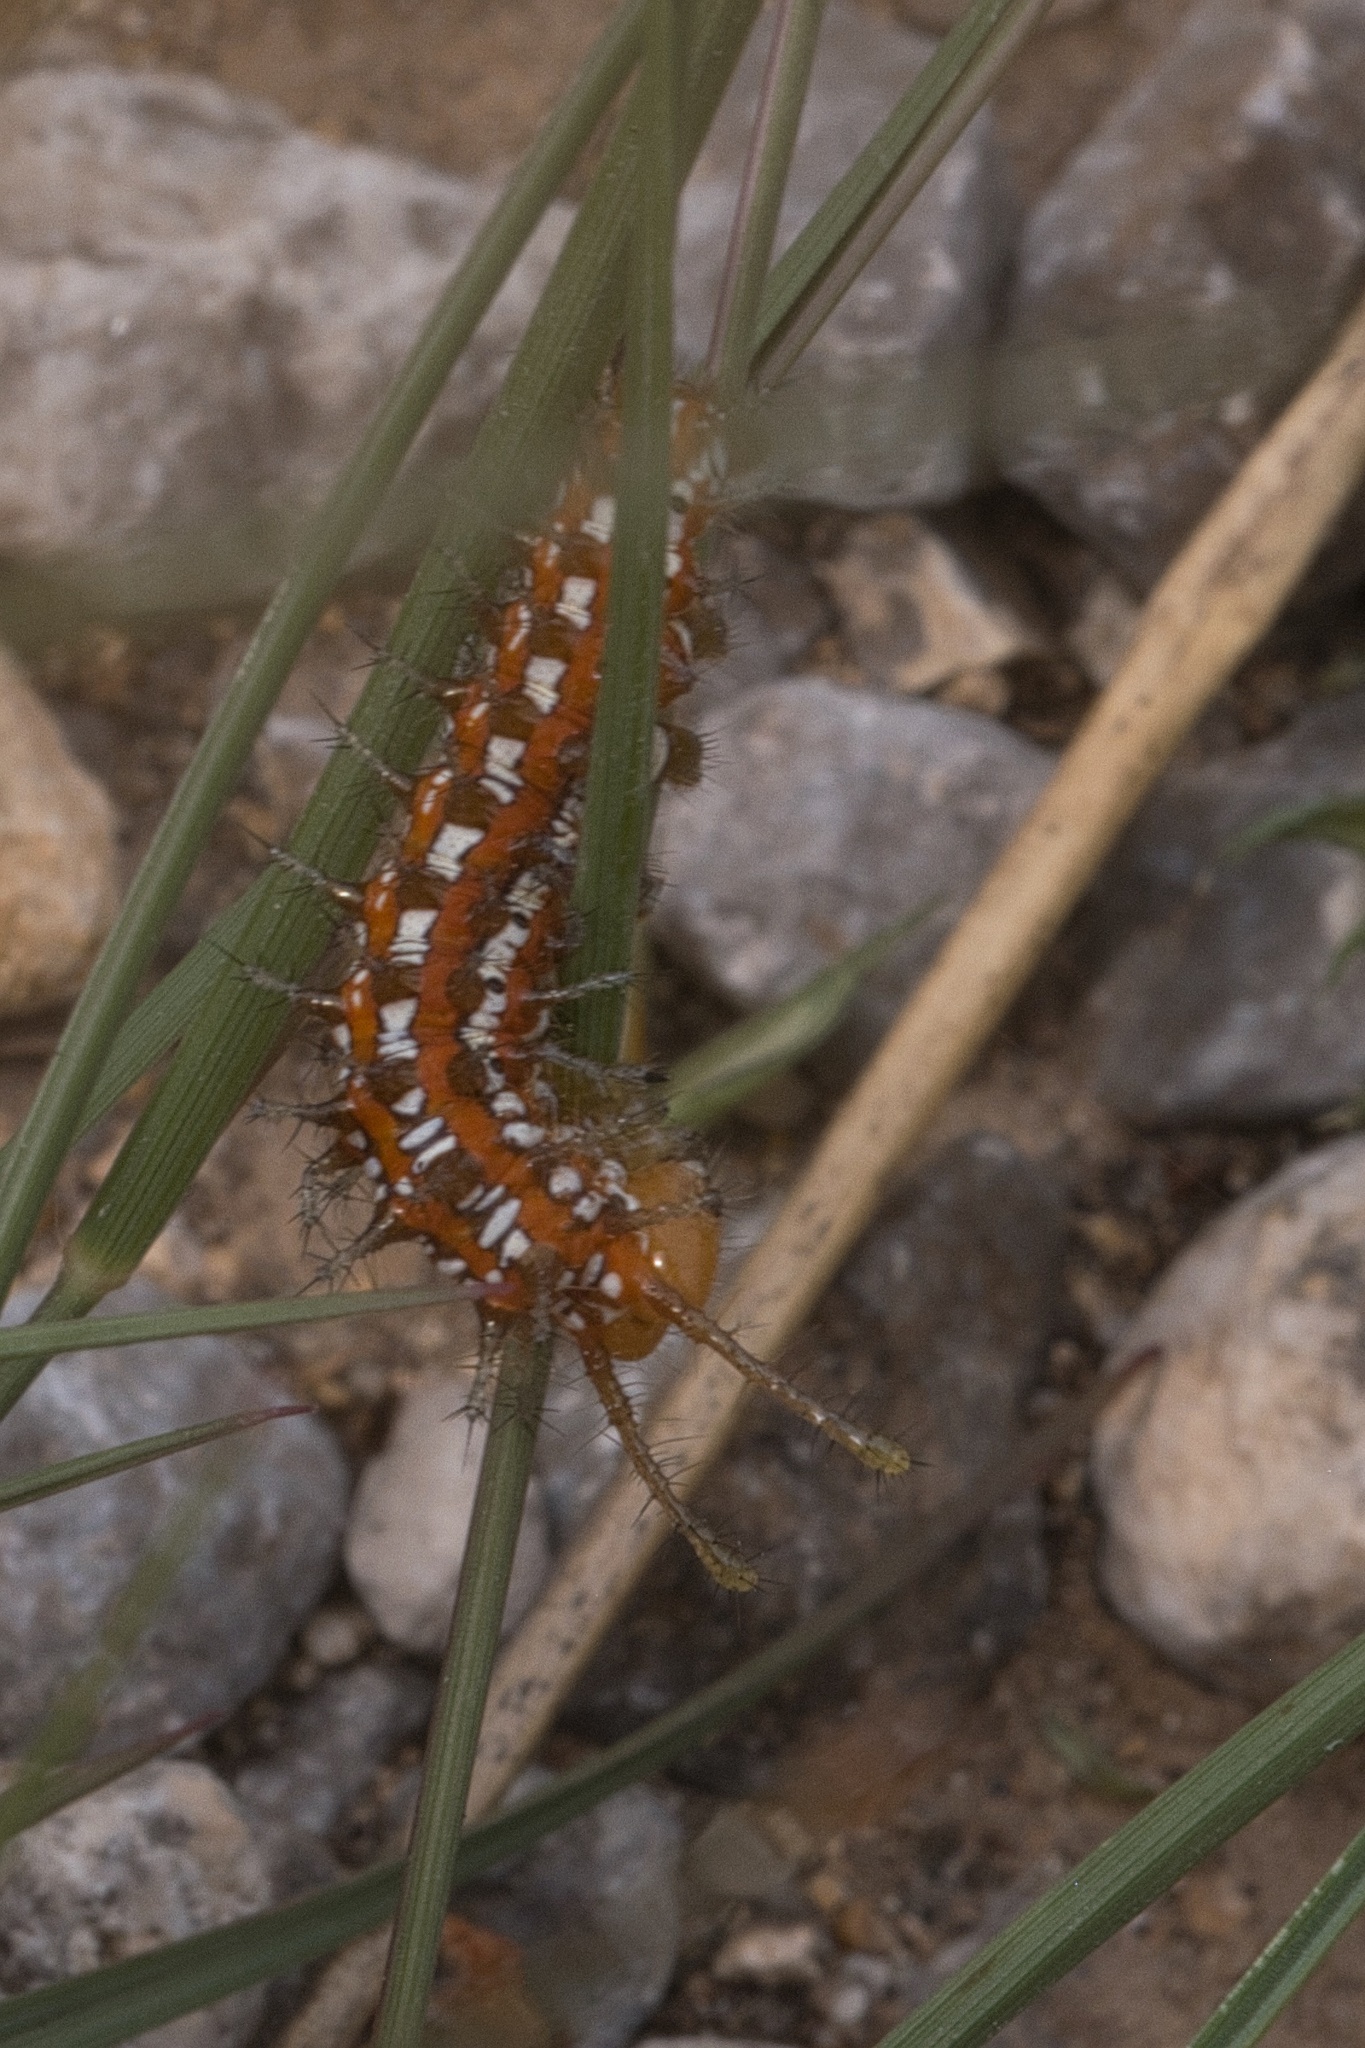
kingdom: Animalia
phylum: Arthropoda
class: Insecta
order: Lepidoptera
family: Nymphalidae
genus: Euptoieta
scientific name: Euptoieta claudia
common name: Variegated fritillary
